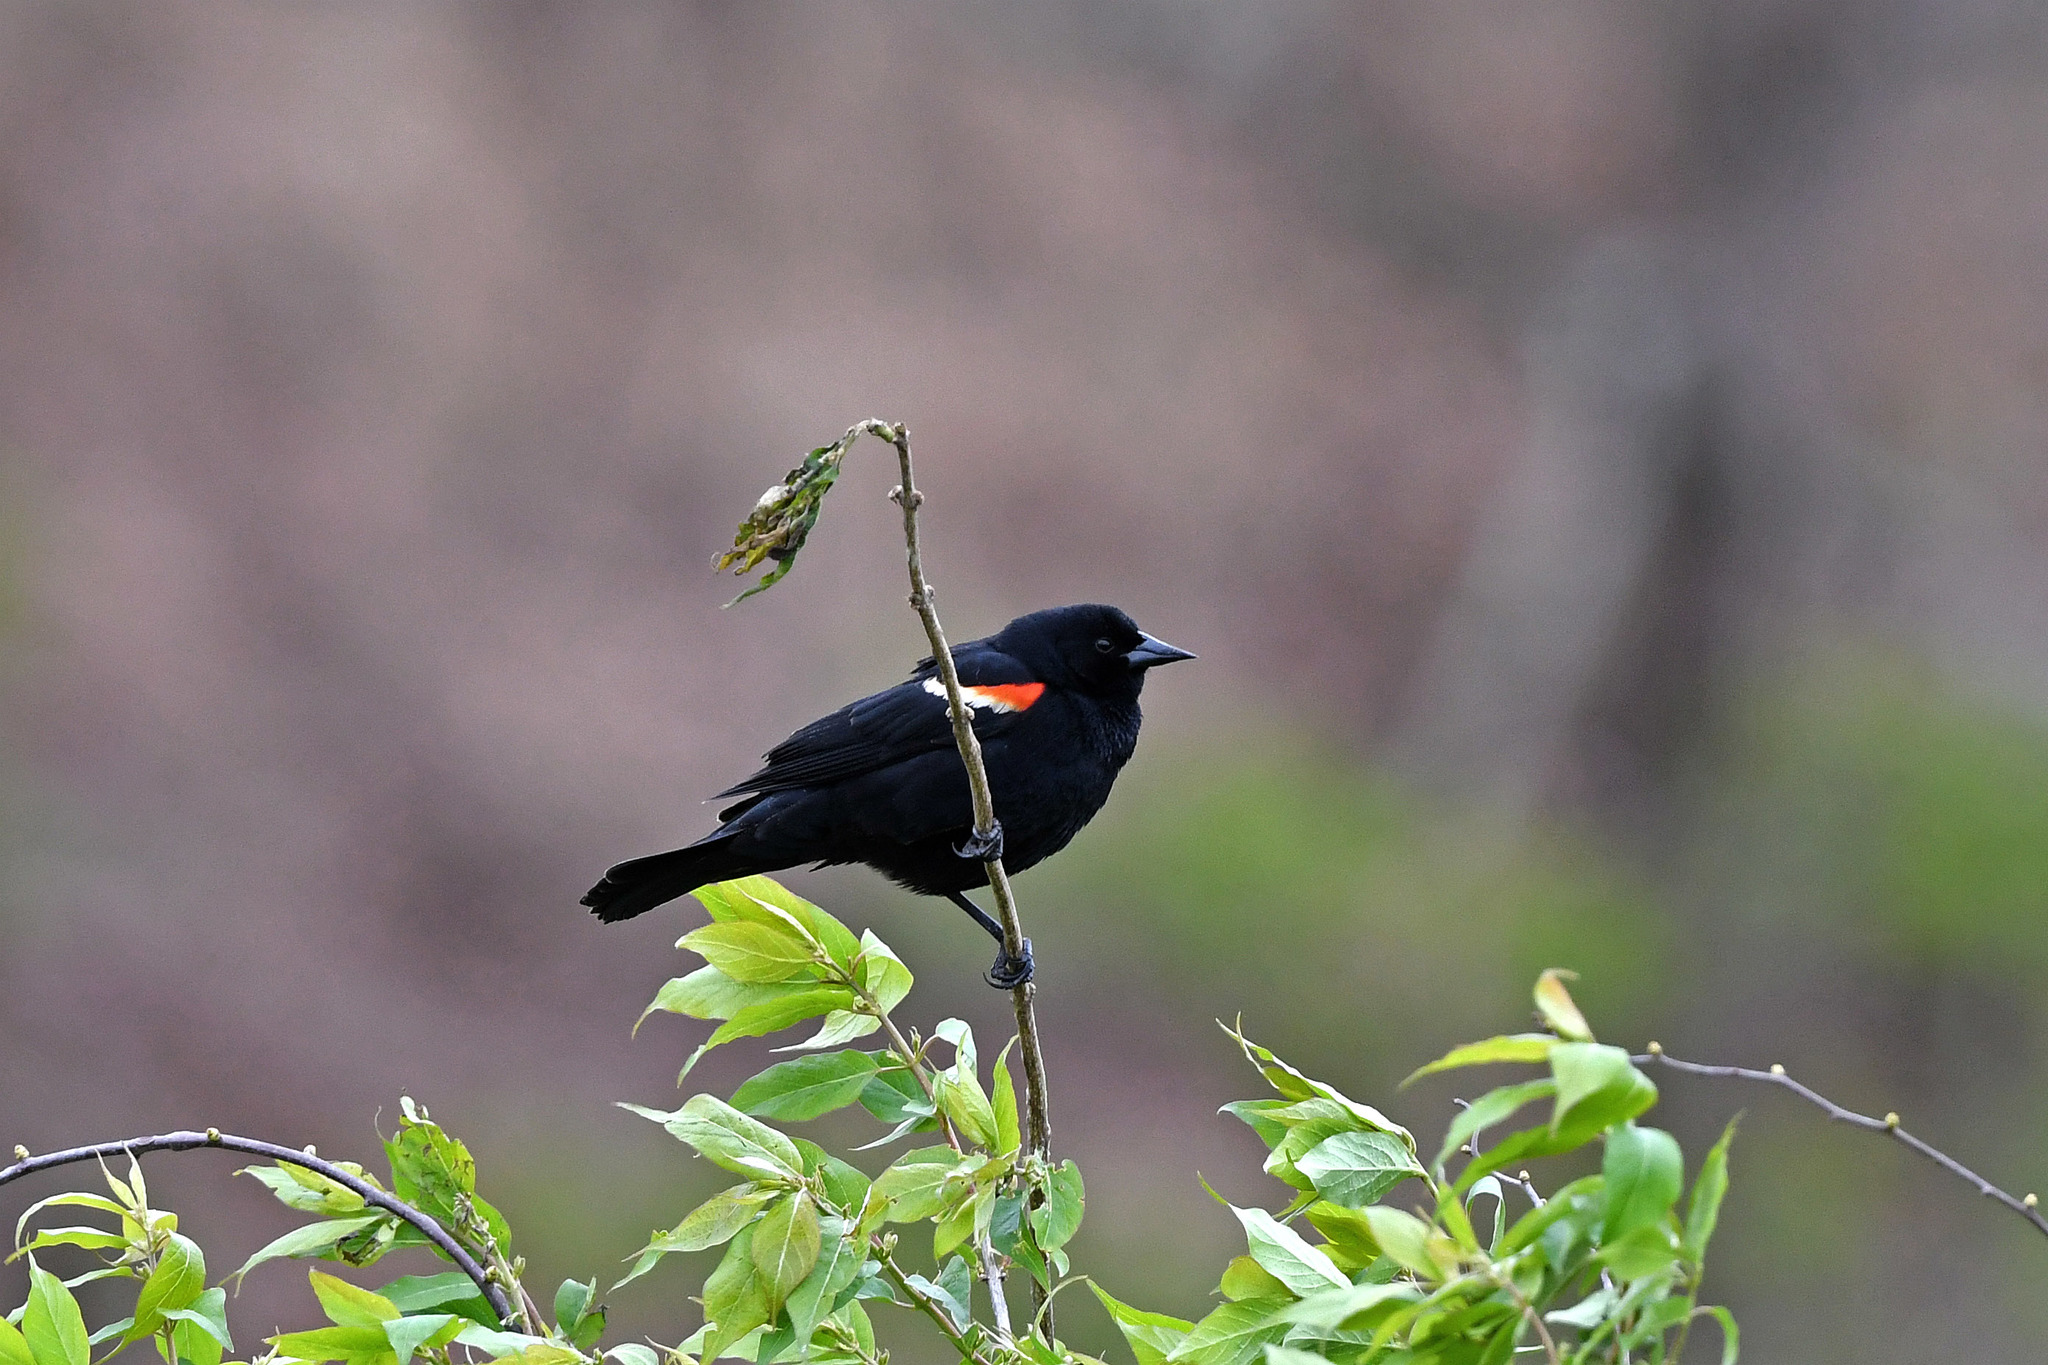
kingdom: Animalia
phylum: Chordata
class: Aves
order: Passeriformes
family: Icteridae
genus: Agelaius
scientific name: Agelaius phoeniceus
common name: Red-winged blackbird
